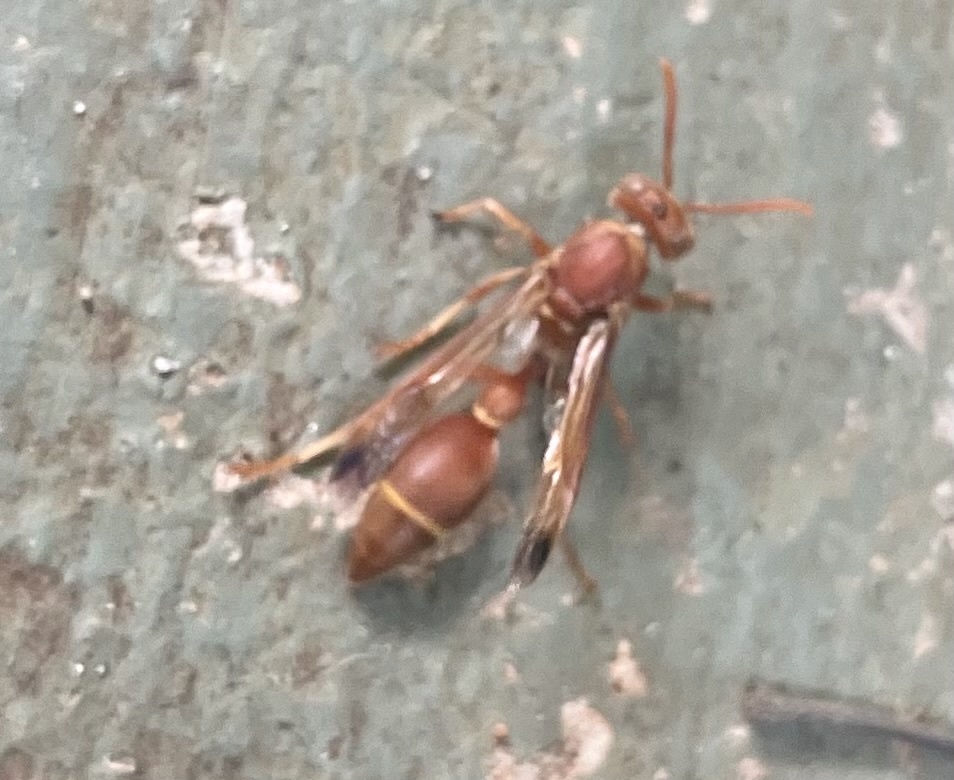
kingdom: Animalia
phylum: Arthropoda
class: Insecta
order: Hymenoptera
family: Vespidae
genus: Ropalidia
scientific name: Ropalidia marginata
